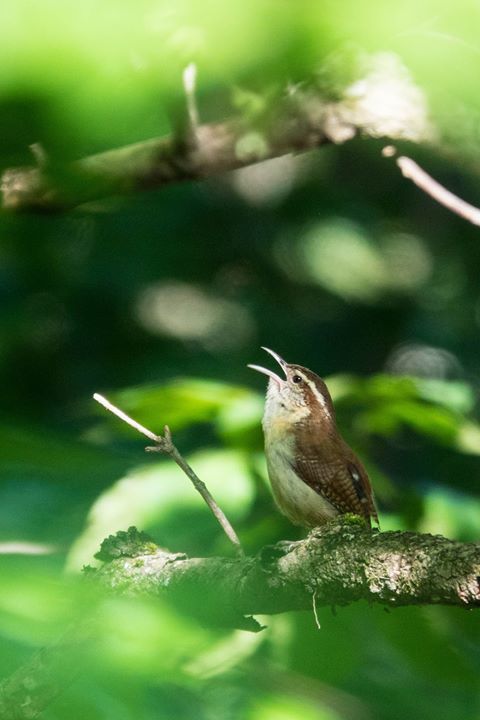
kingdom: Animalia
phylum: Chordata
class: Aves
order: Passeriformes
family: Troglodytidae
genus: Thryothorus
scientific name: Thryothorus ludovicianus
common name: Carolina wren
